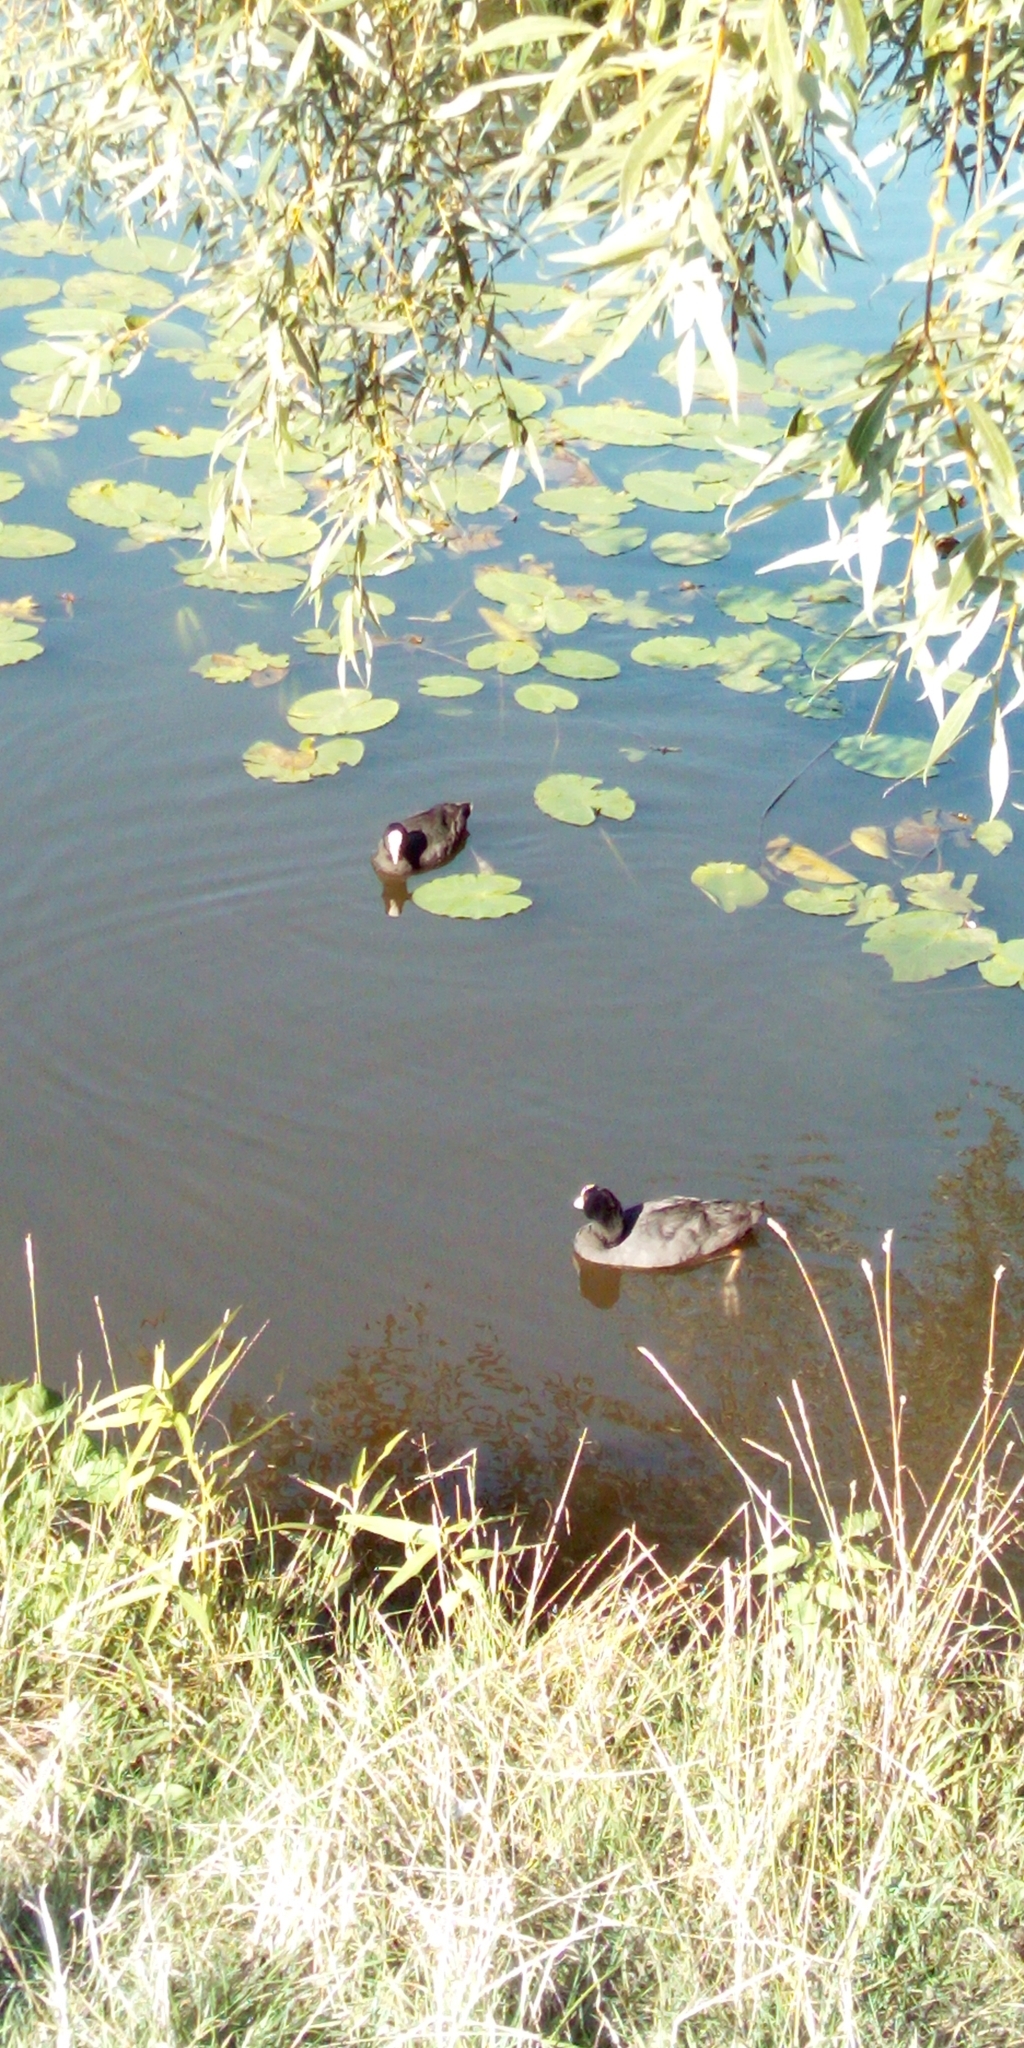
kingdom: Animalia
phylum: Chordata
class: Aves
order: Gruiformes
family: Rallidae
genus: Fulica
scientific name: Fulica atra
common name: Eurasian coot
